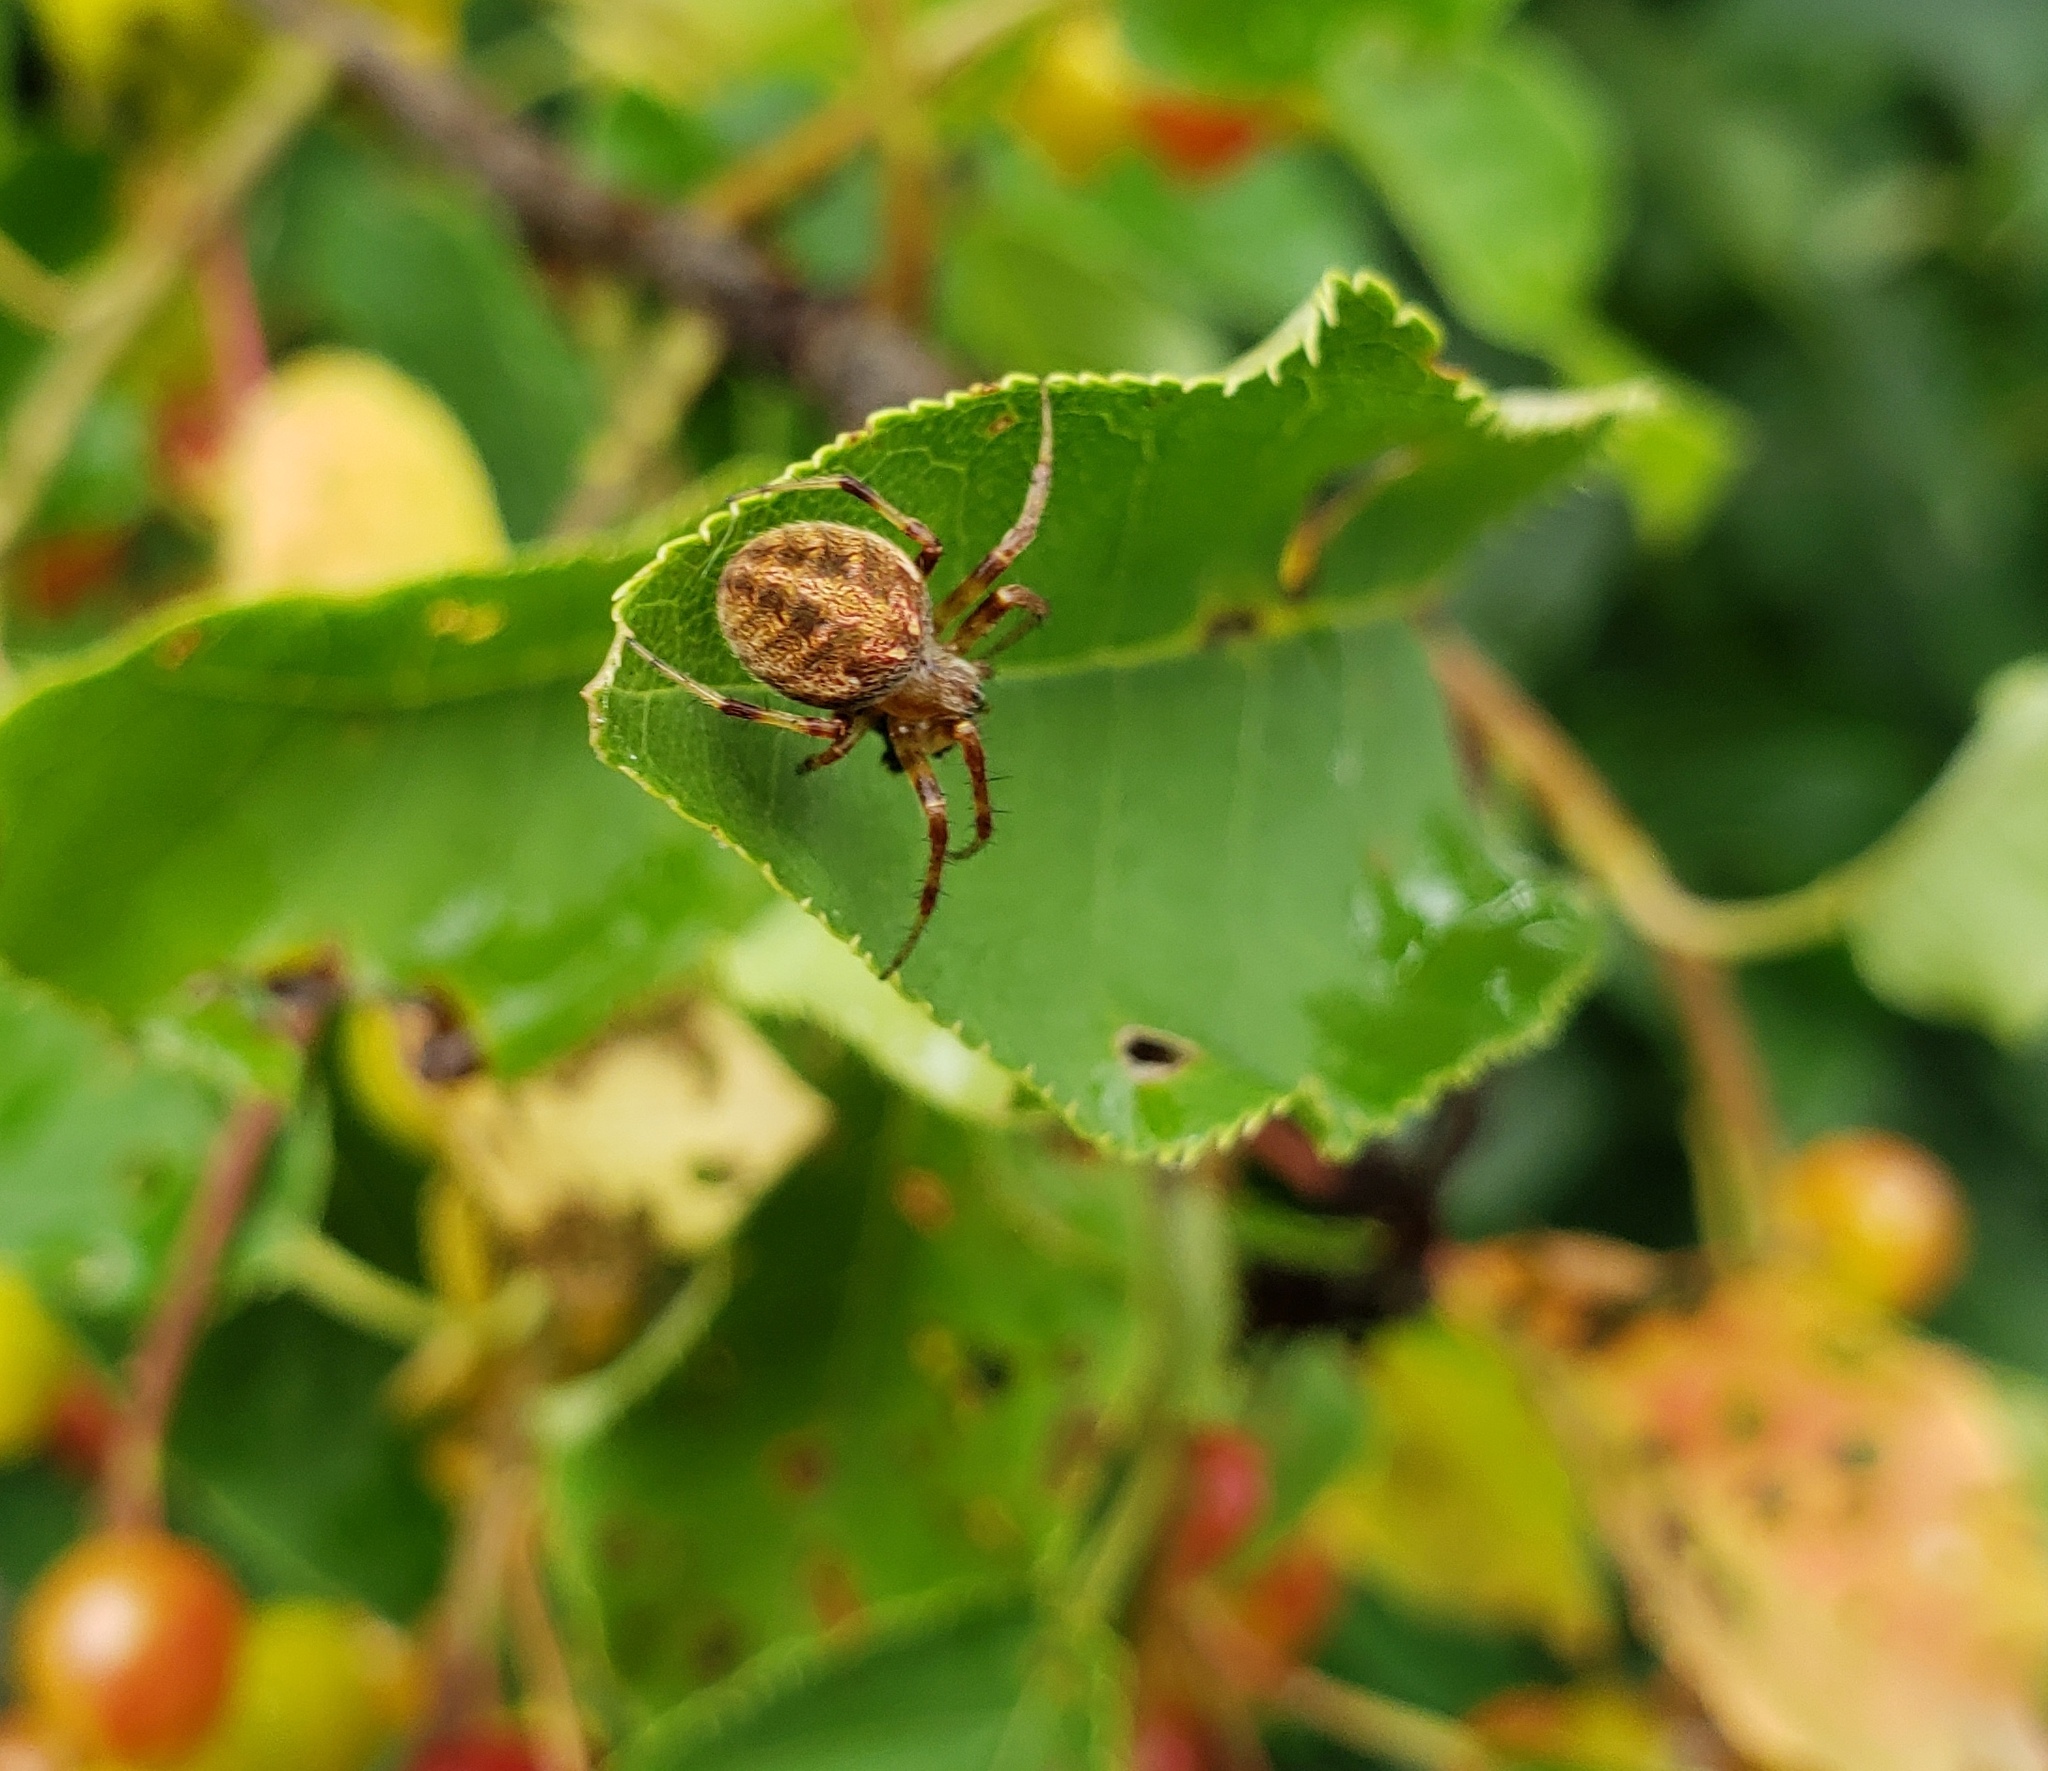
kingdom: Animalia
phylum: Arthropoda
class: Arachnida
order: Araneae
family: Araneidae
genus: Neoscona
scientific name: Neoscona arabesca
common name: Orb weavers
